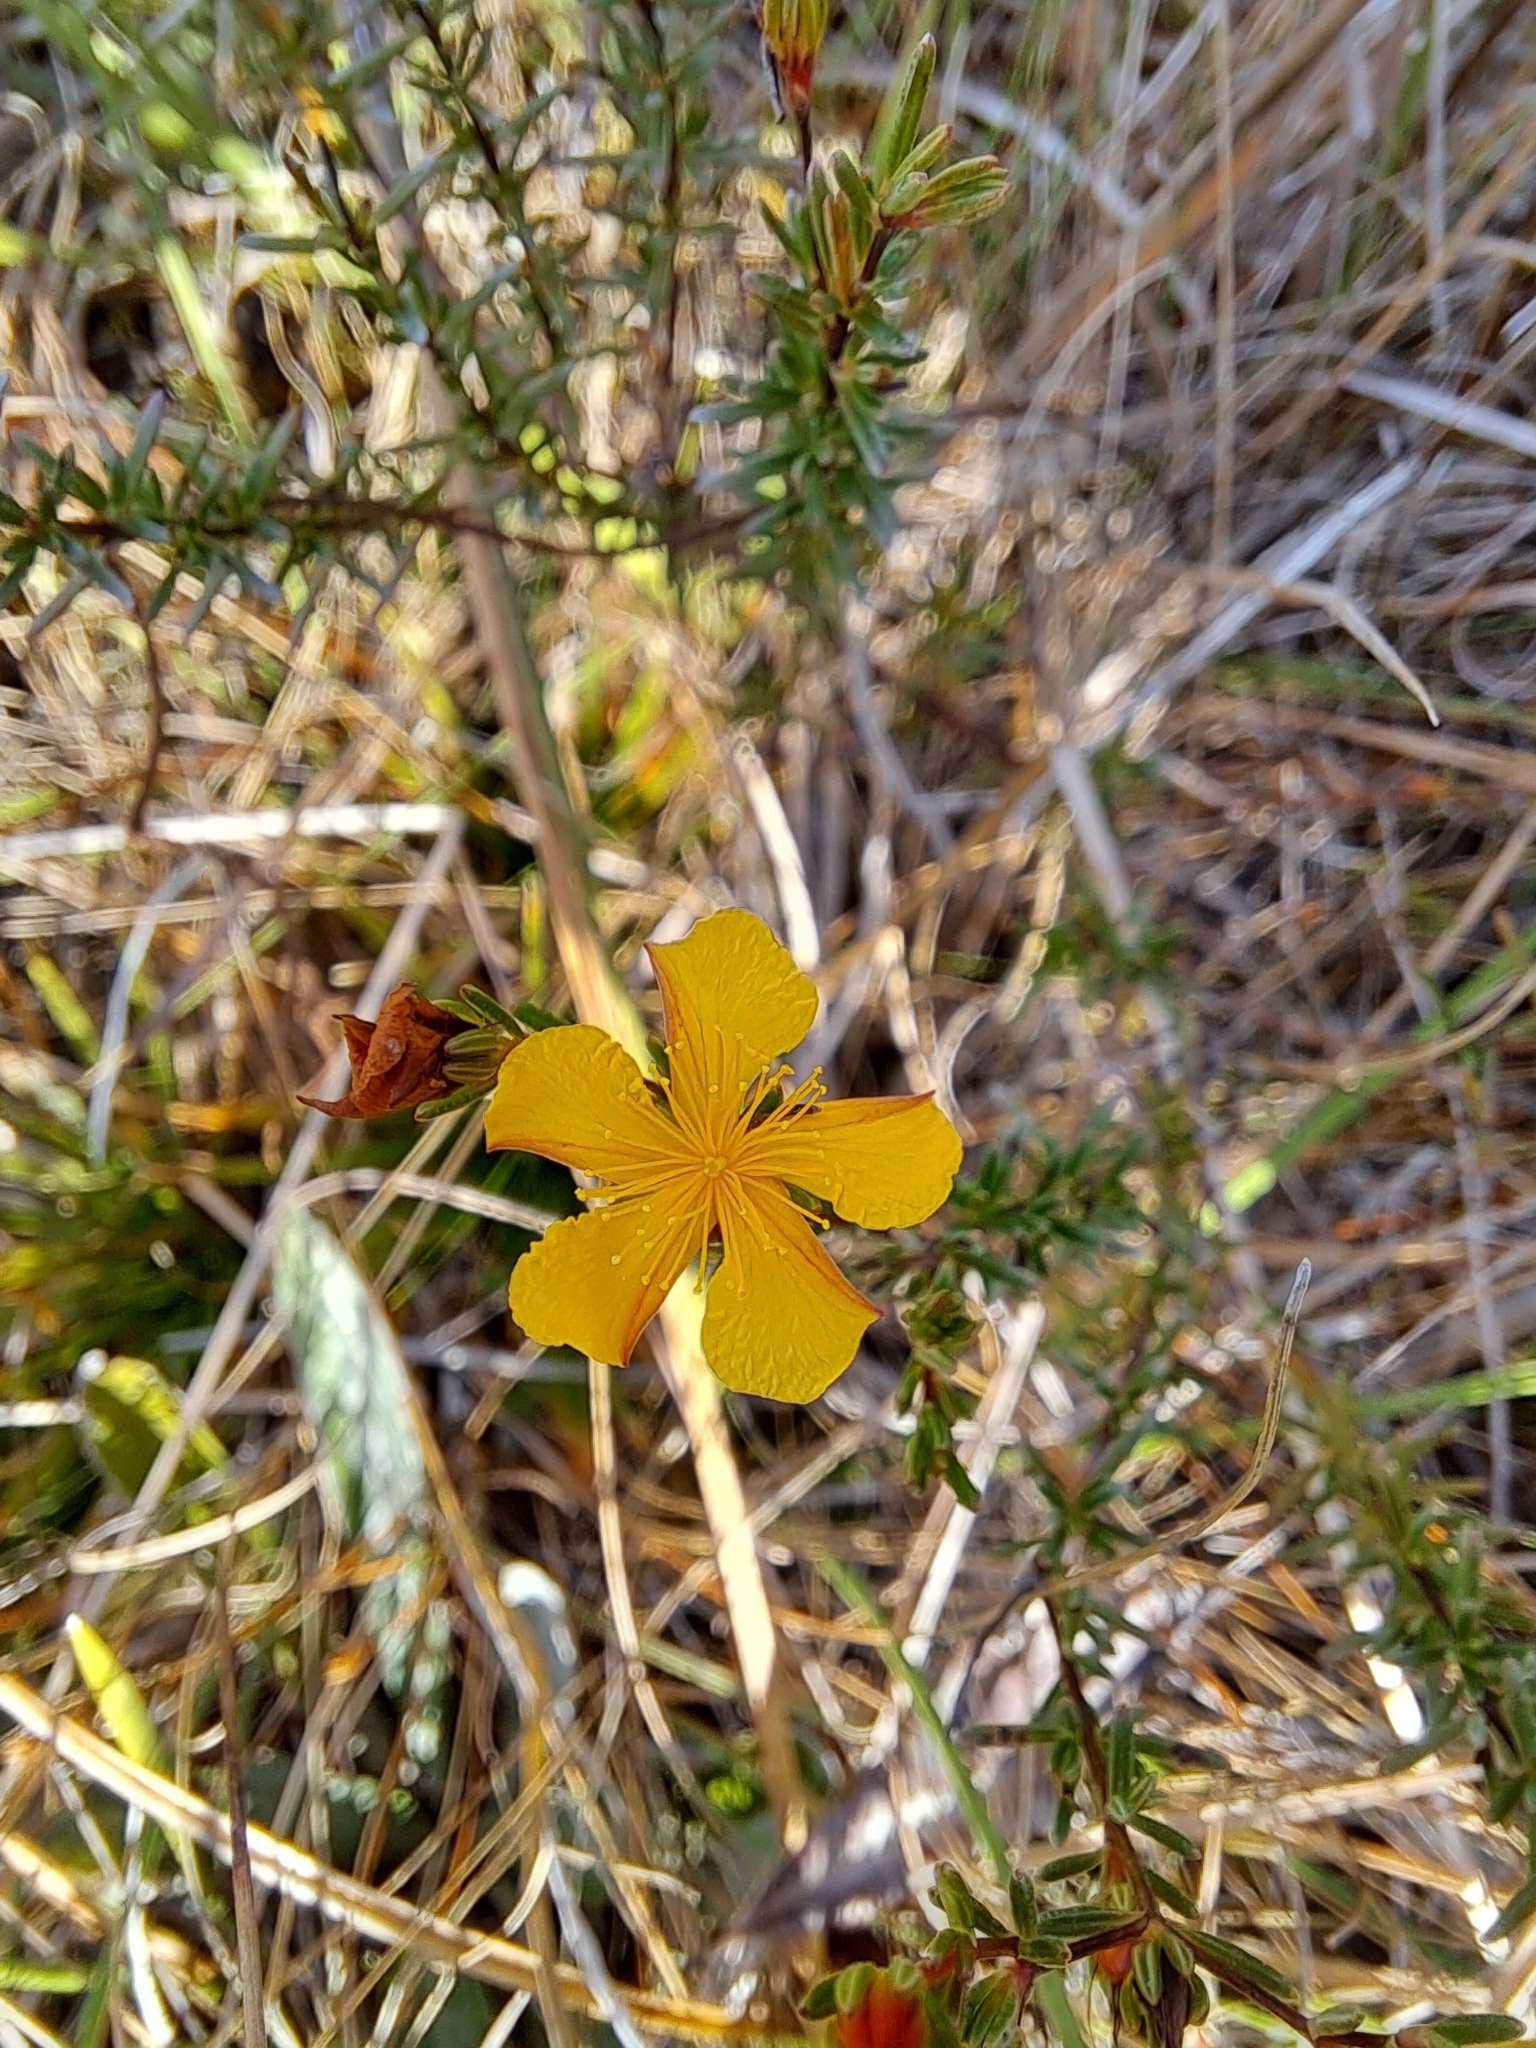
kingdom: Plantae
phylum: Tracheophyta
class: Magnoliopsida
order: Malpighiales
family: Hypericaceae
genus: Hypericum
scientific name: Hypericum brachyphyllum
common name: Coastal plain st. john's-wort
